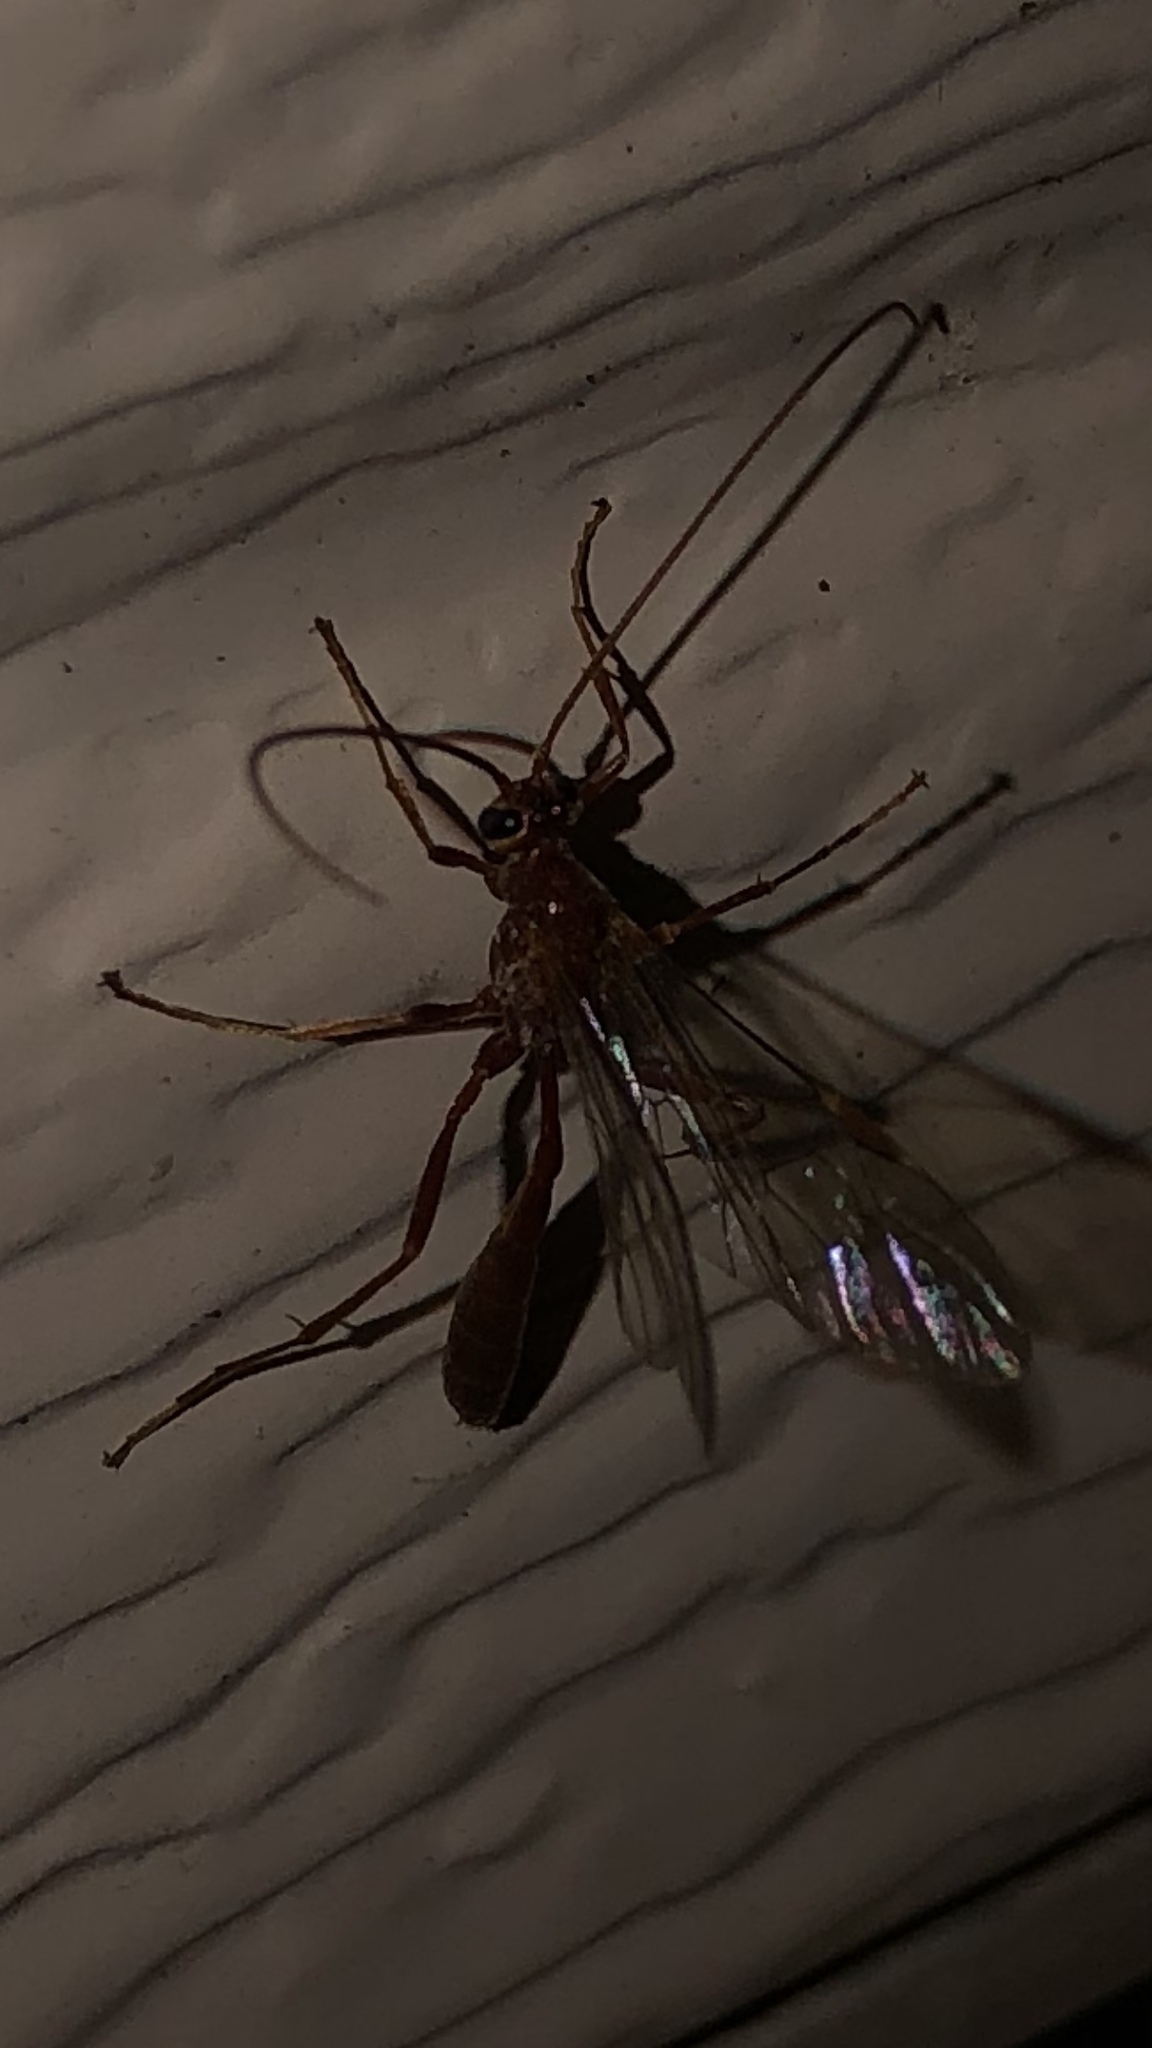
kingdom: Animalia
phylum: Arthropoda
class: Insecta
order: Hymenoptera
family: Ichneumonidae
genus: Ophion
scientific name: Ophion
